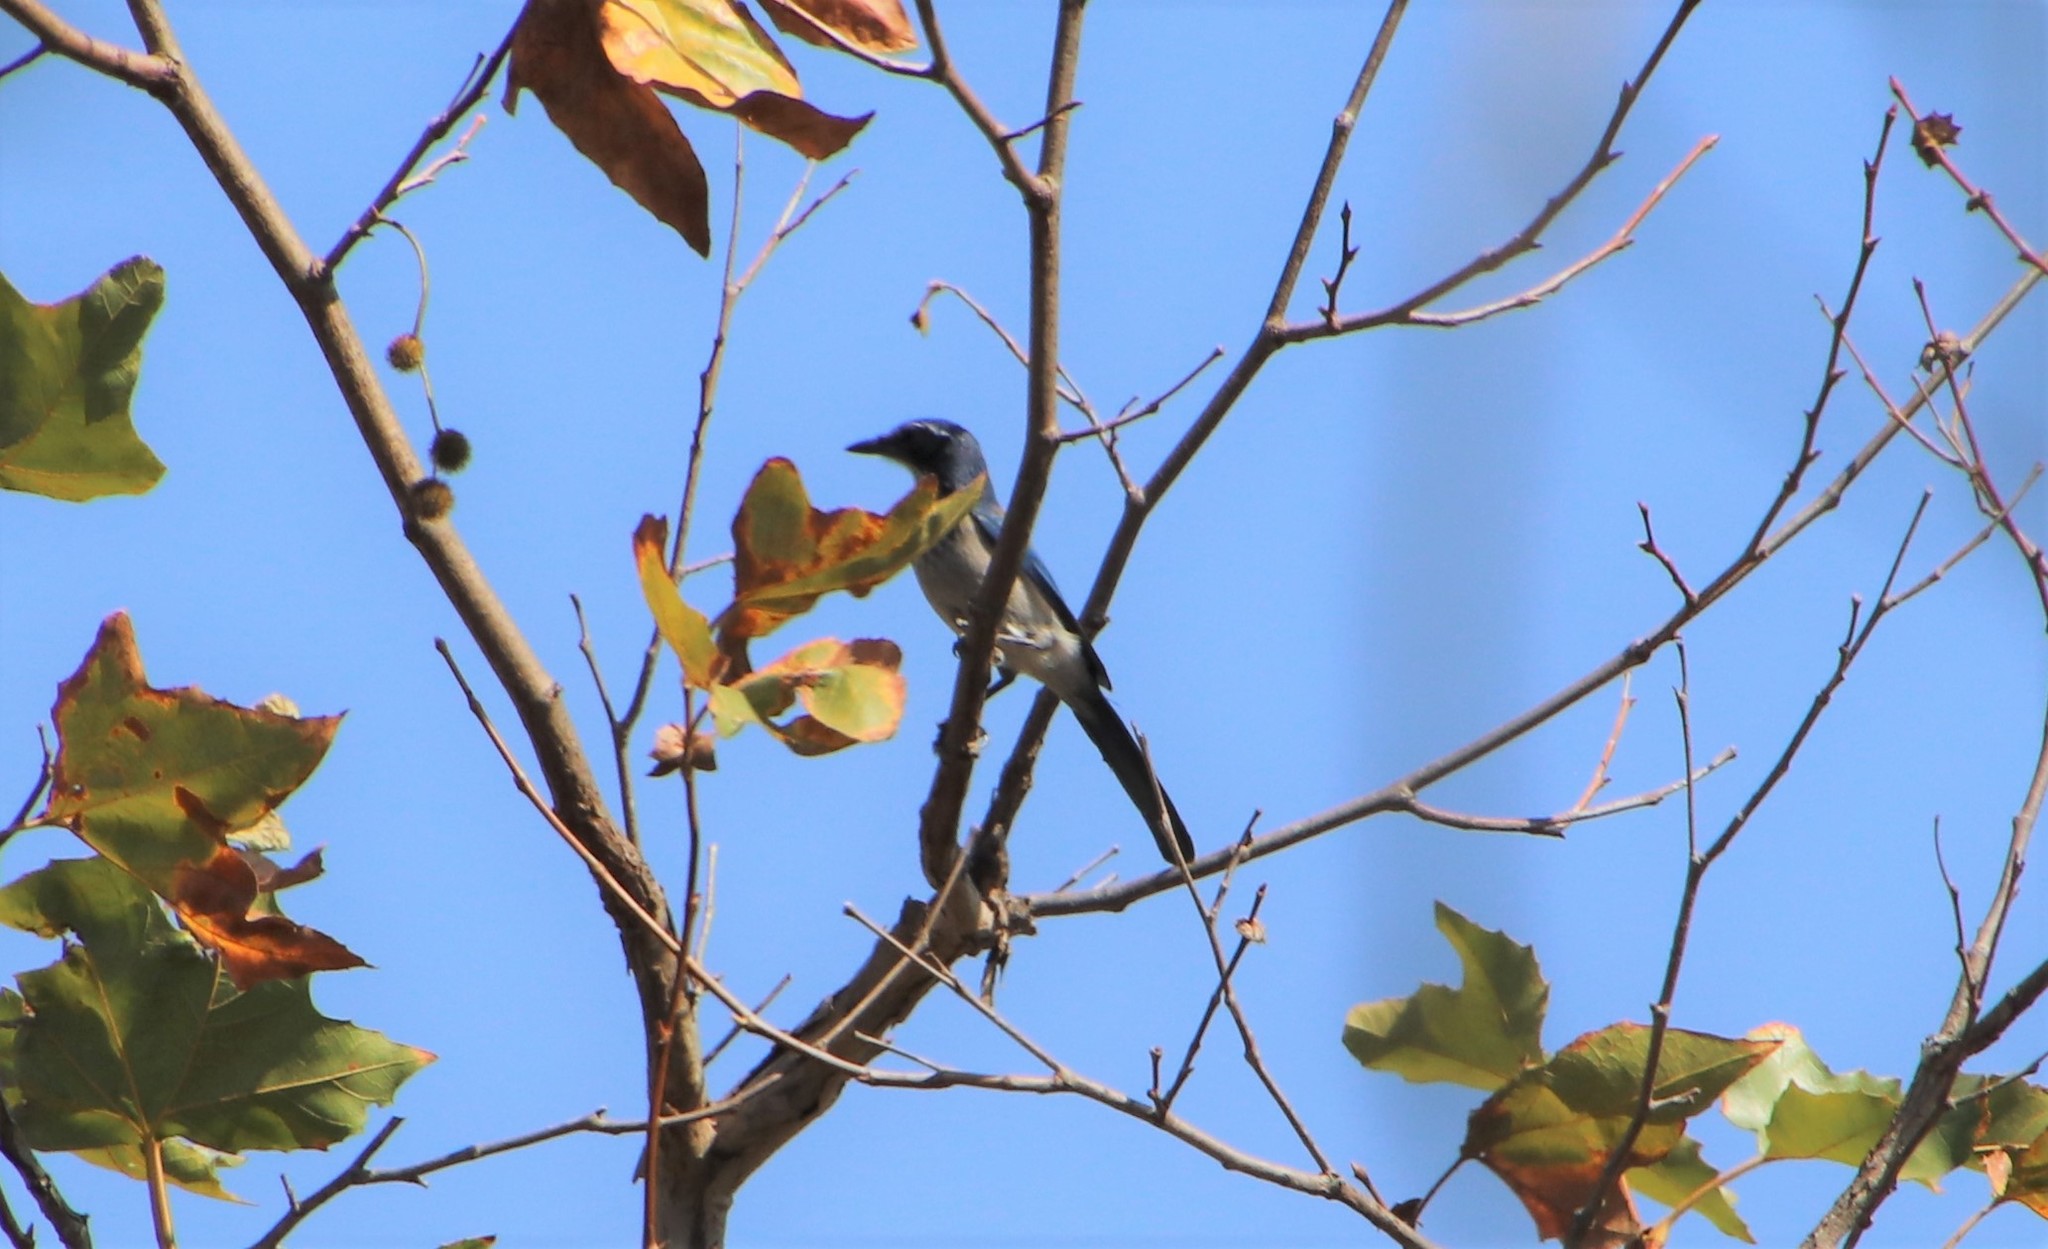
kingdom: Animalia
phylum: Chordata
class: Aves
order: Passeriformes
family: Corvidae
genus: Aphelocoma
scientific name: Aphelocoma californica
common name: California scrub-jay
